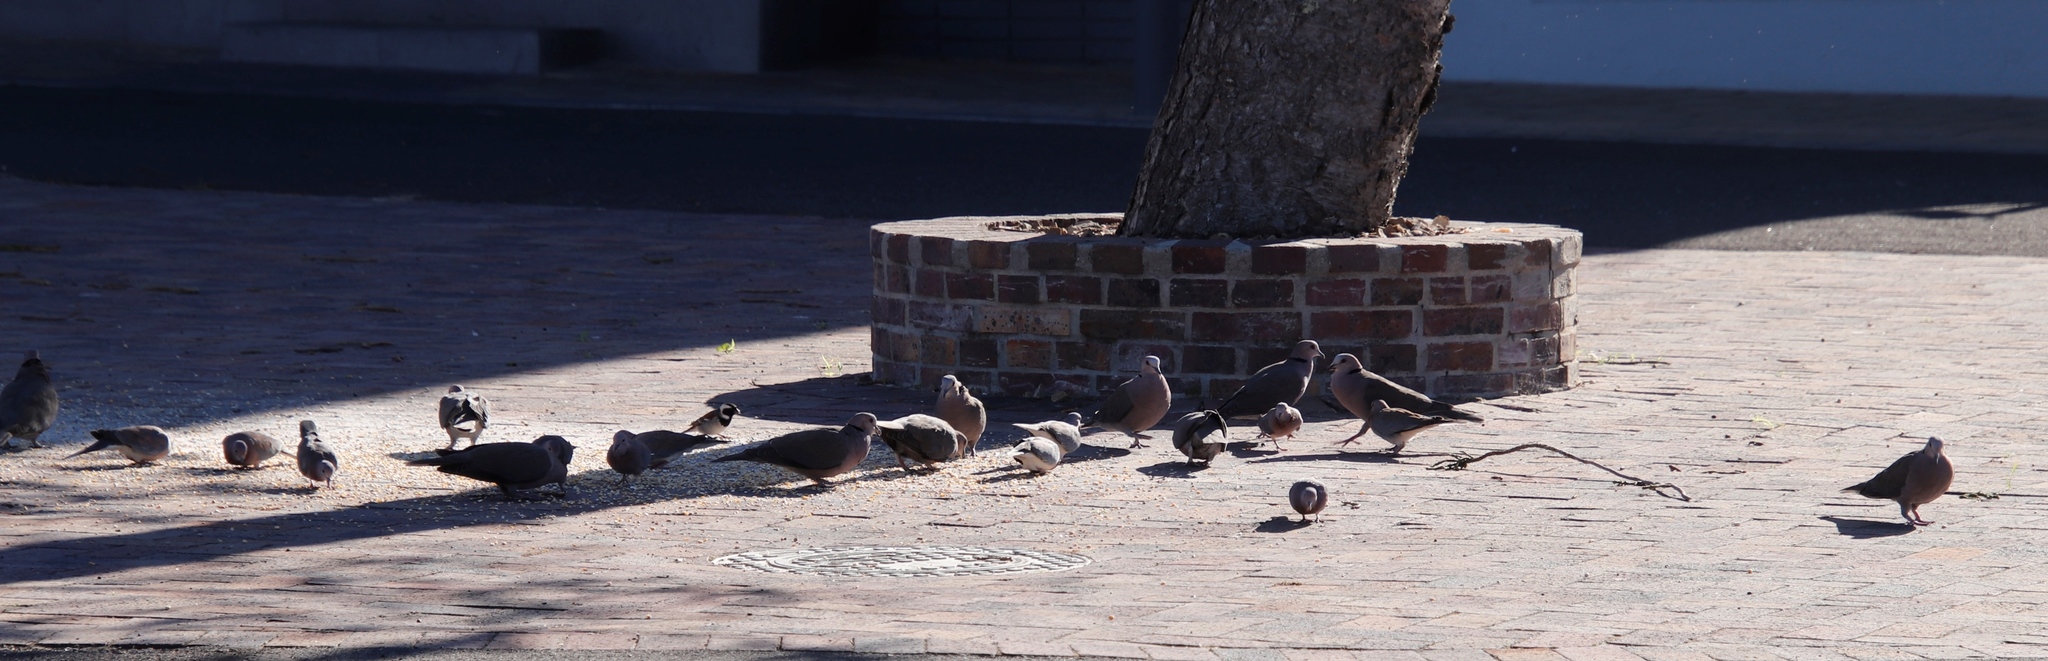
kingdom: Animalia
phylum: Chordata
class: Aves
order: Columbiformes
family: Columbidae
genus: Spilopelia
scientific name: Spilopelia senegalensis
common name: Laughing dove
